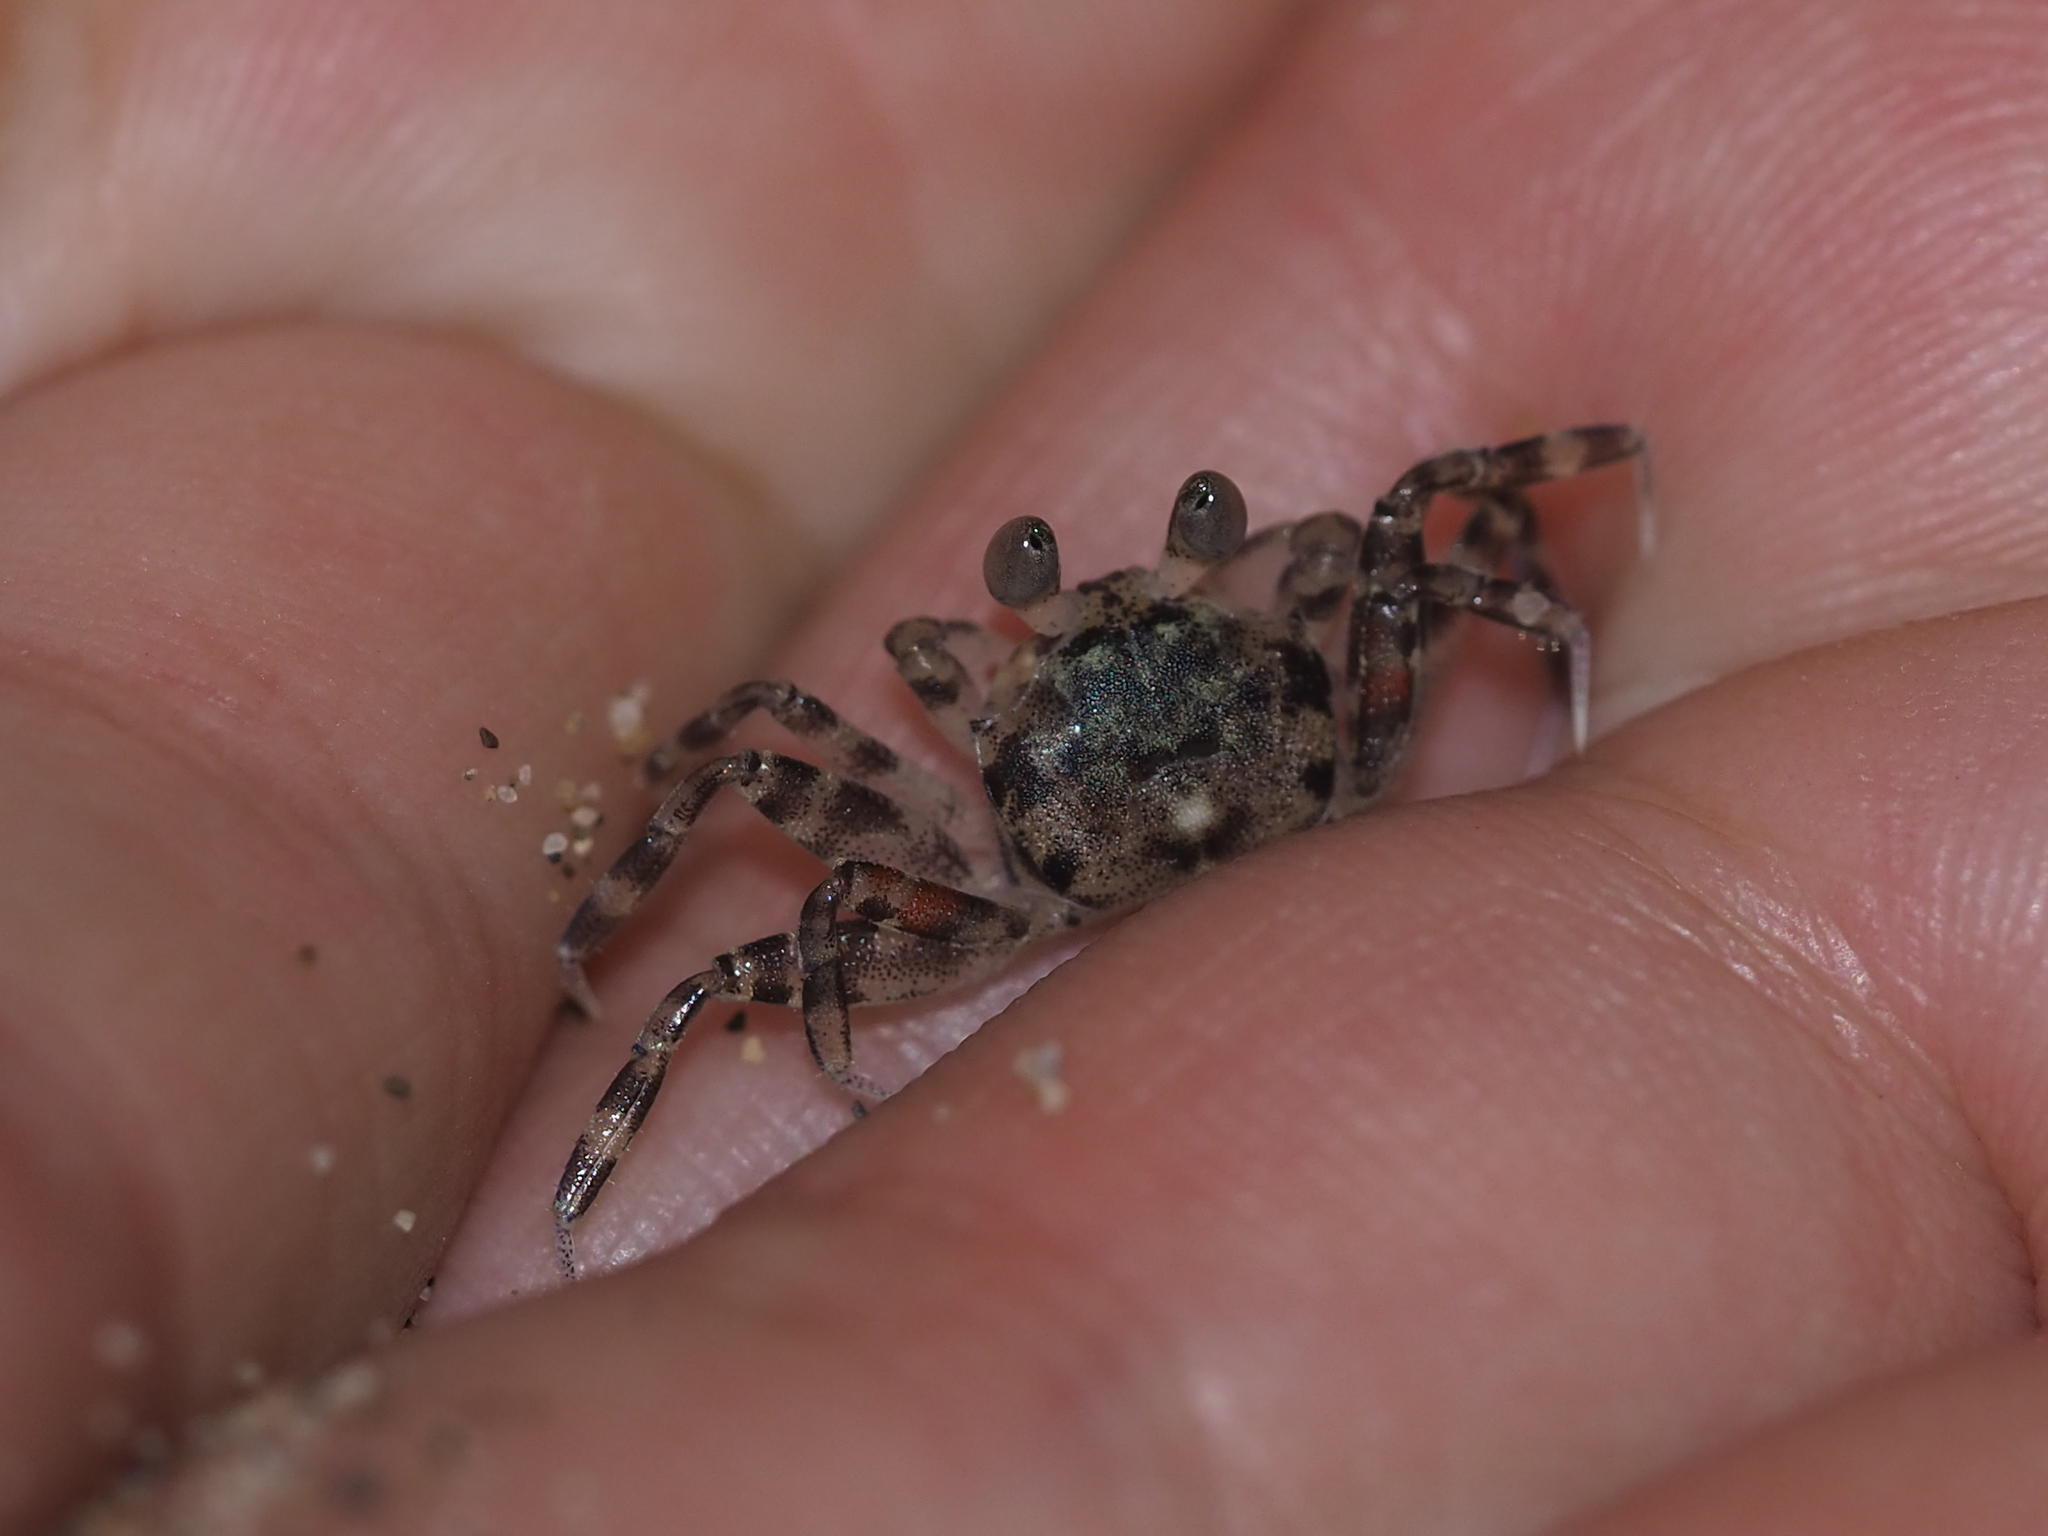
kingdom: Animalia
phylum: Arthropoda
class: Malacostraca
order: Decapoda
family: Ocypodidae
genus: Ocypode
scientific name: Ocypode ceratophthalmus
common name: Indo-pacific ghost crab
